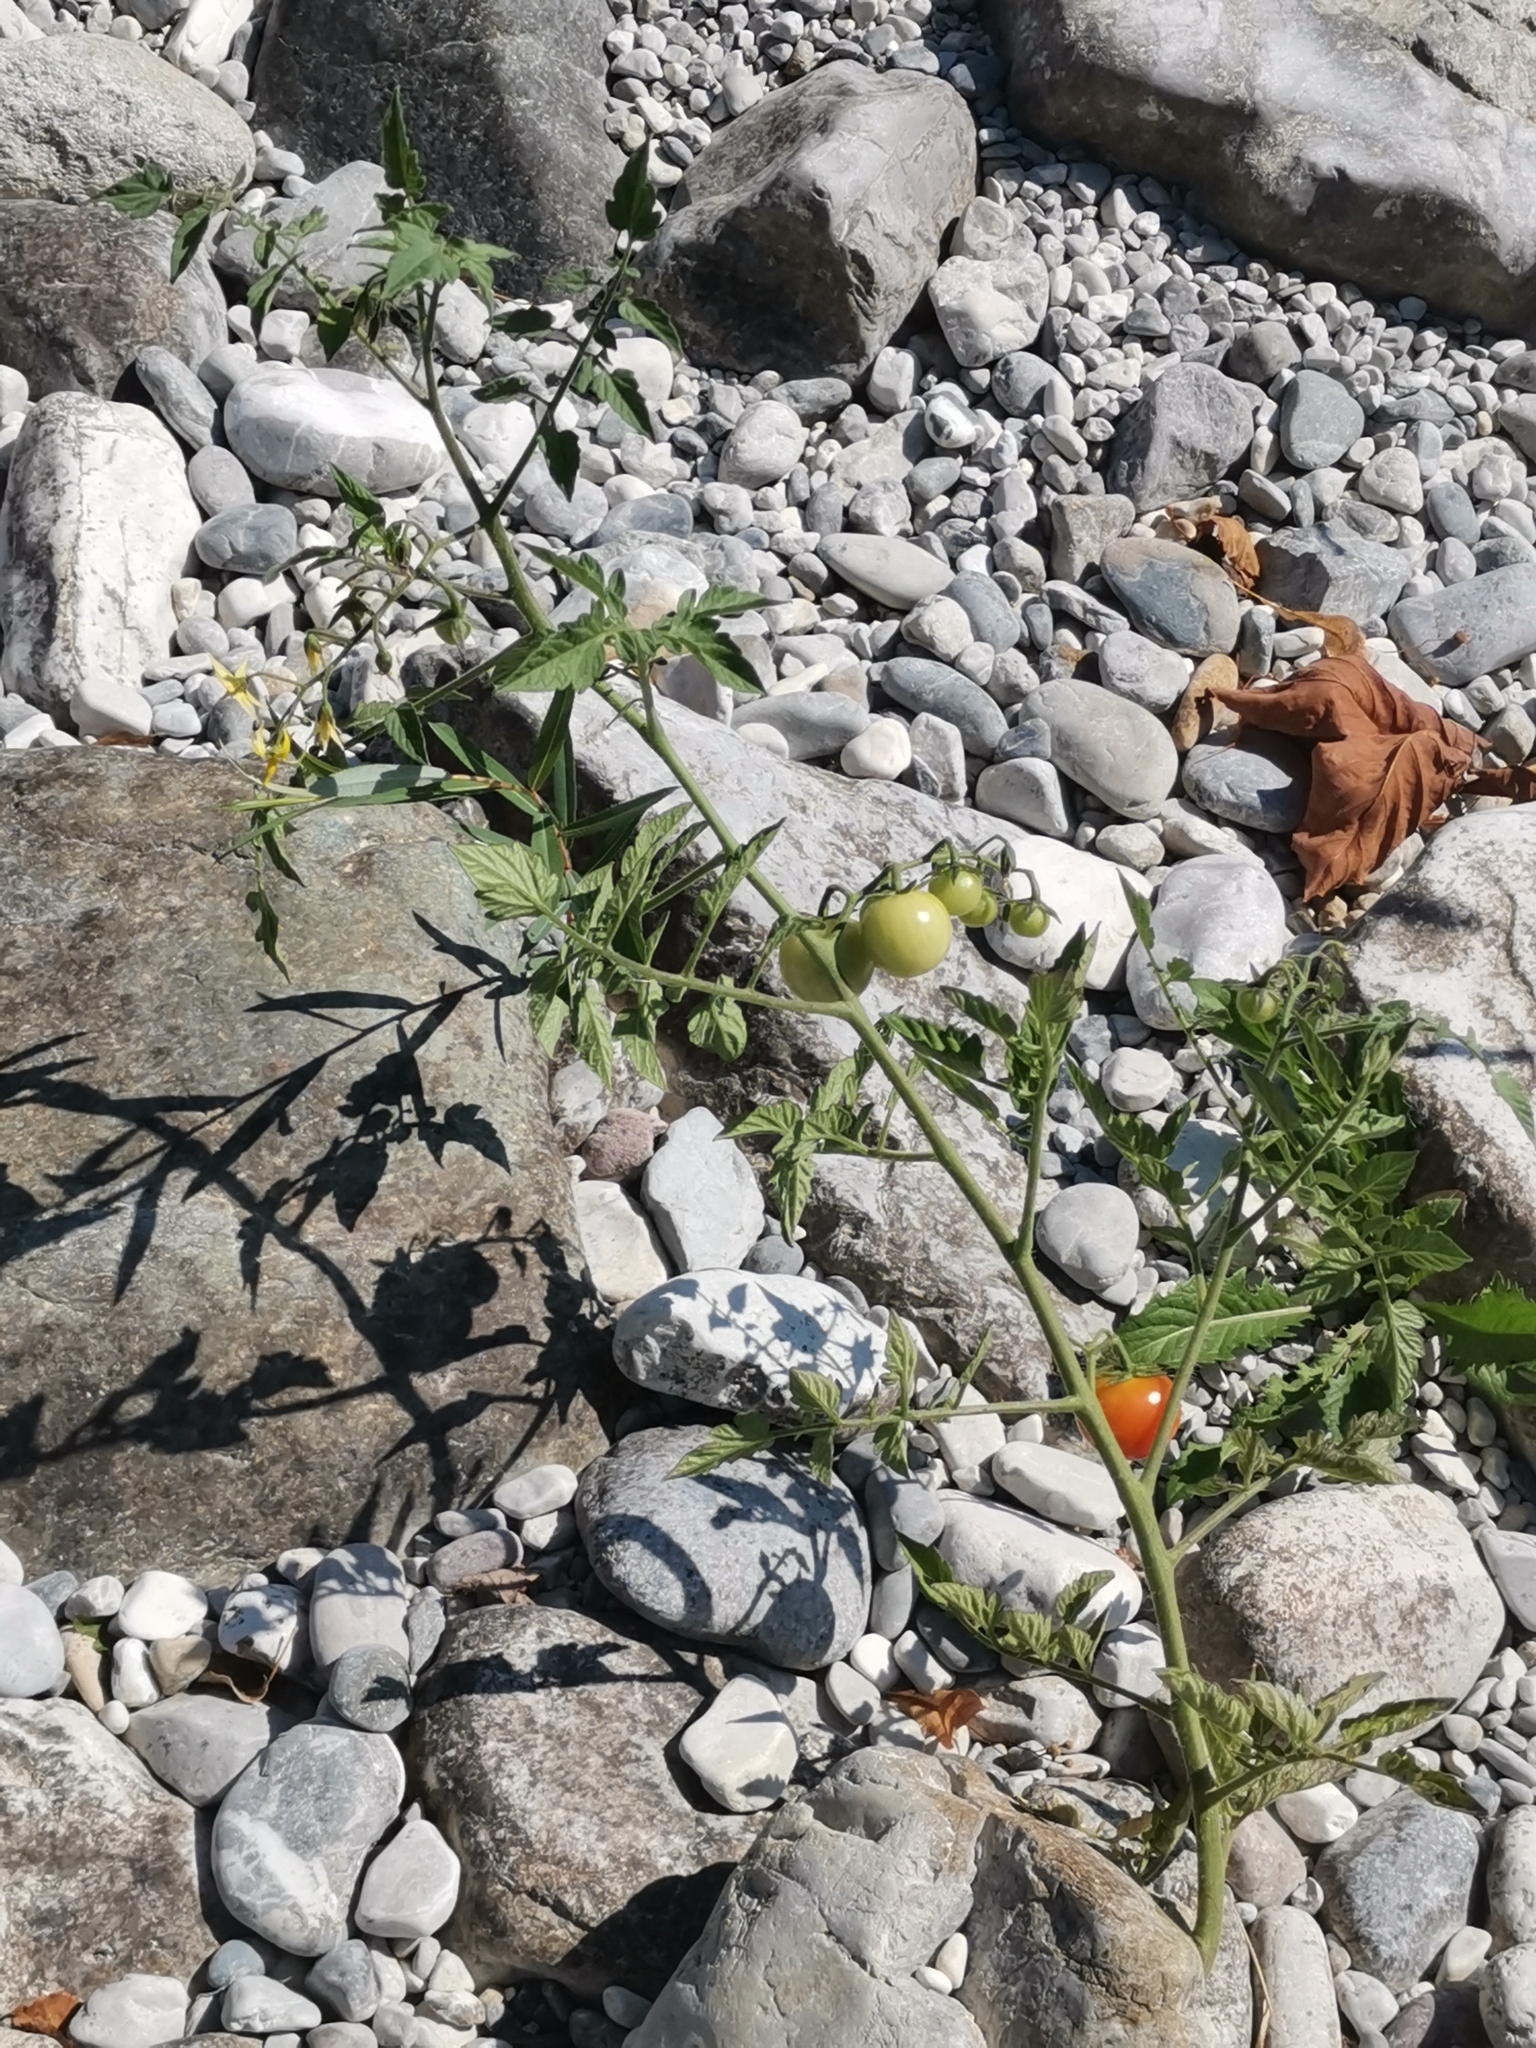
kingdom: Plantae
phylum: Tracheophyta
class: Magnoliopsida
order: Solanales
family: Solanaceae
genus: Solanum
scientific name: Solanum lycopersicum
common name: Garden tomato
